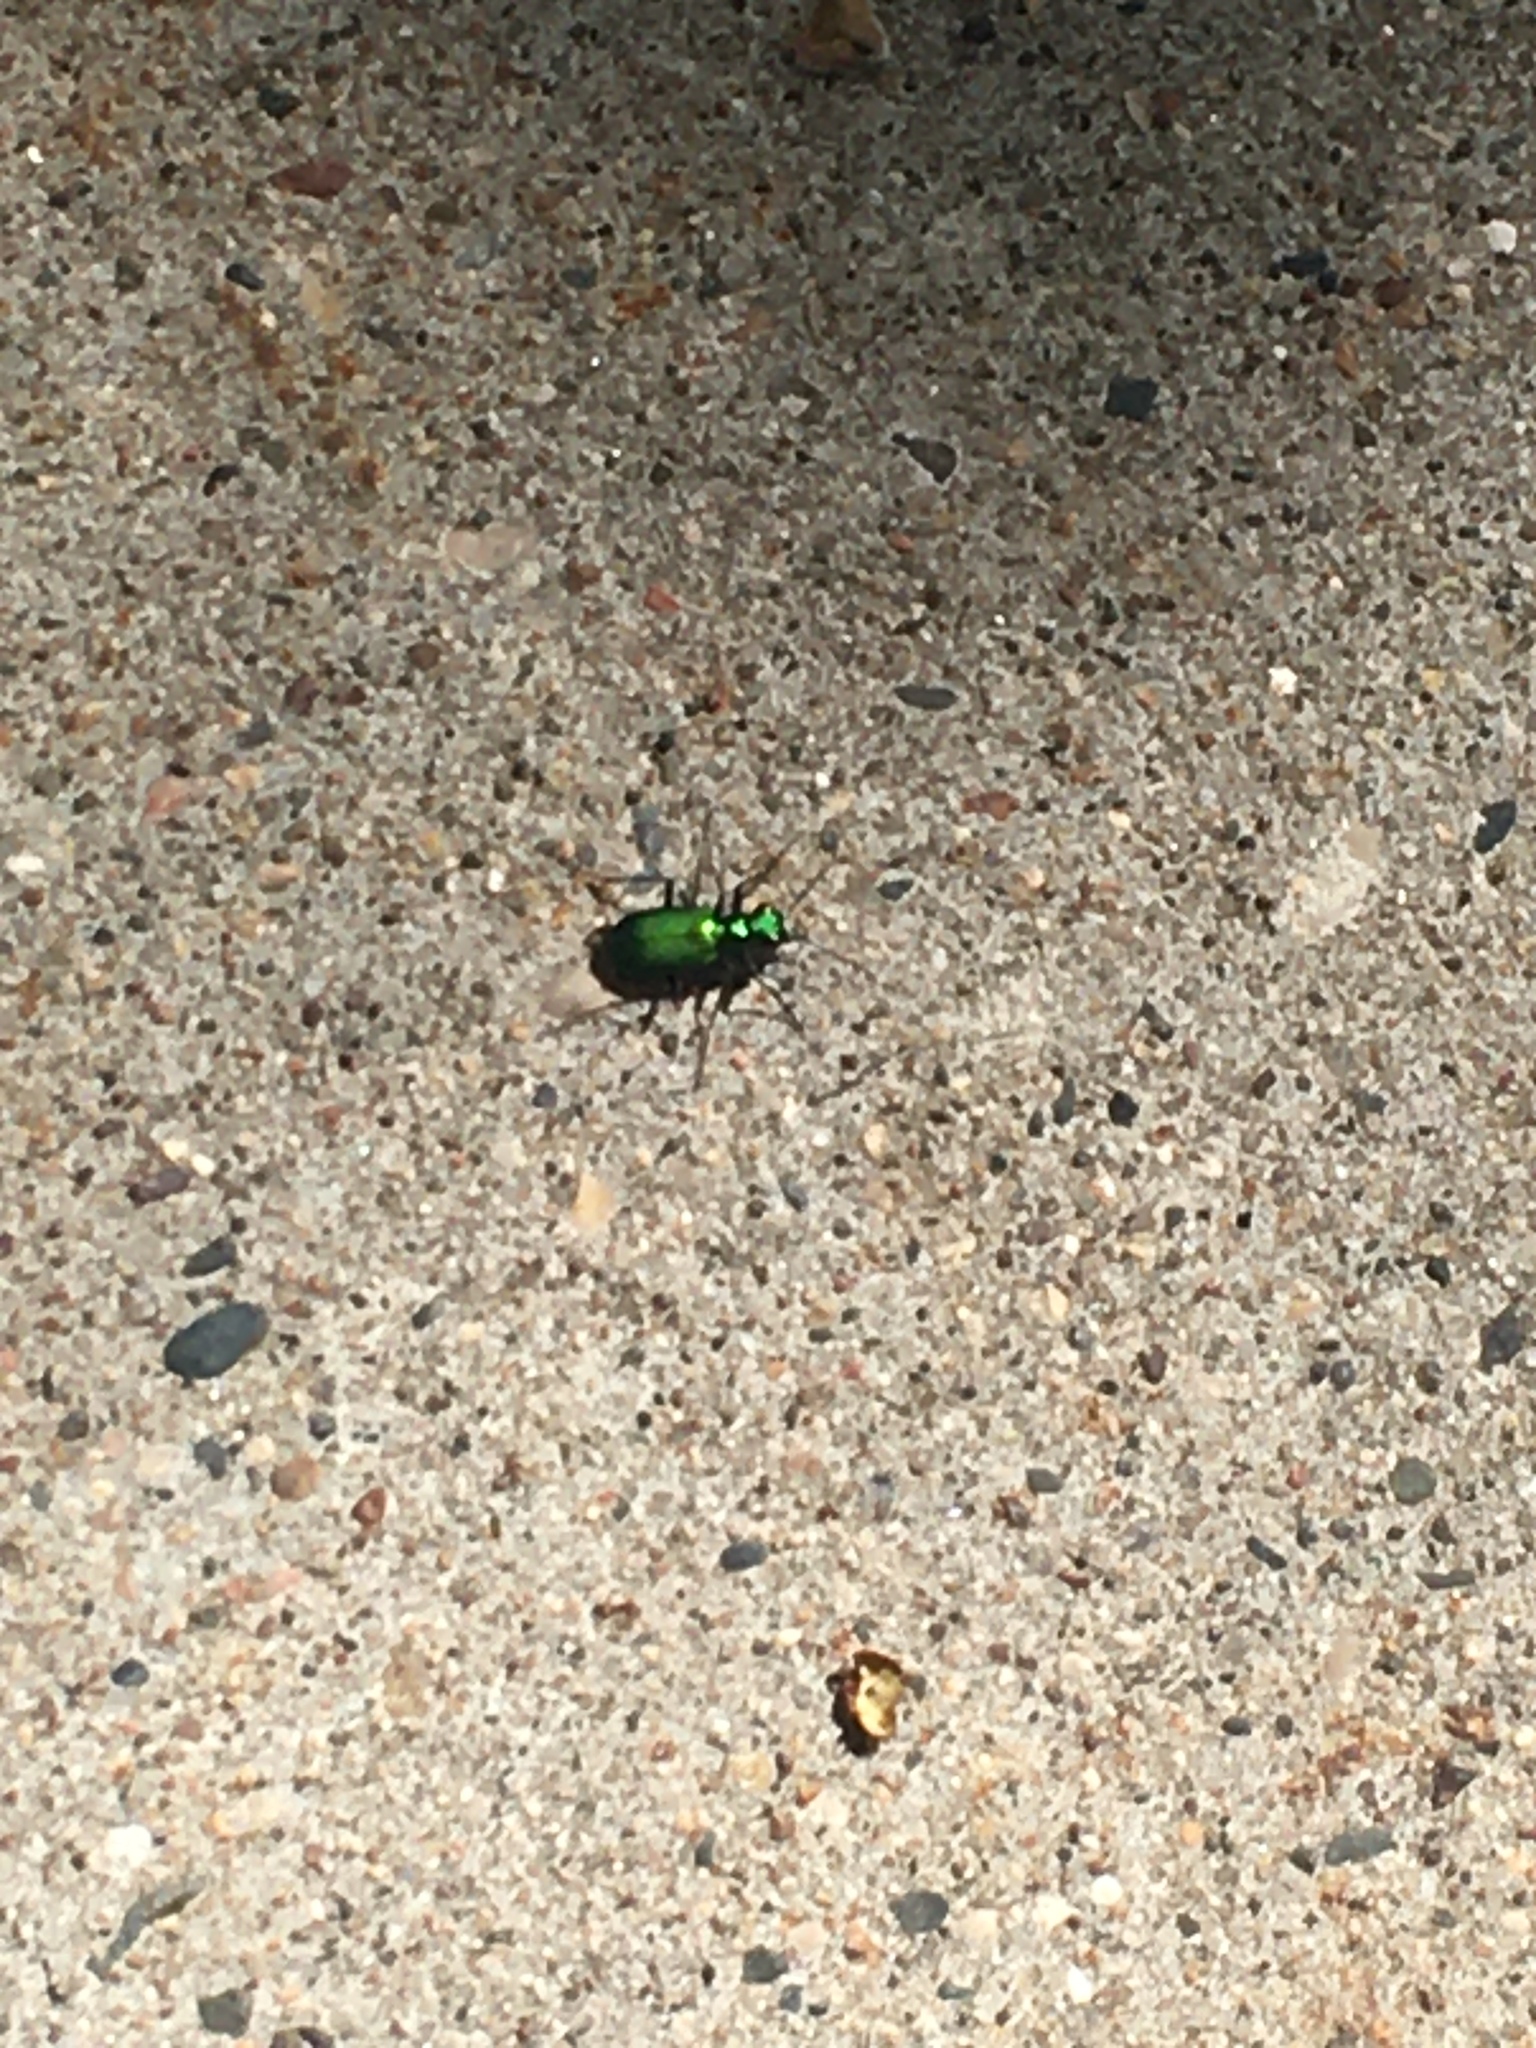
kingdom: Animalia
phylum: Arthropoda
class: Insecta
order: Coleoptera
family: Carabidae
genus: Cicindela
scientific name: Cicindela sexguttata
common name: Six-spotted tiger beetle
